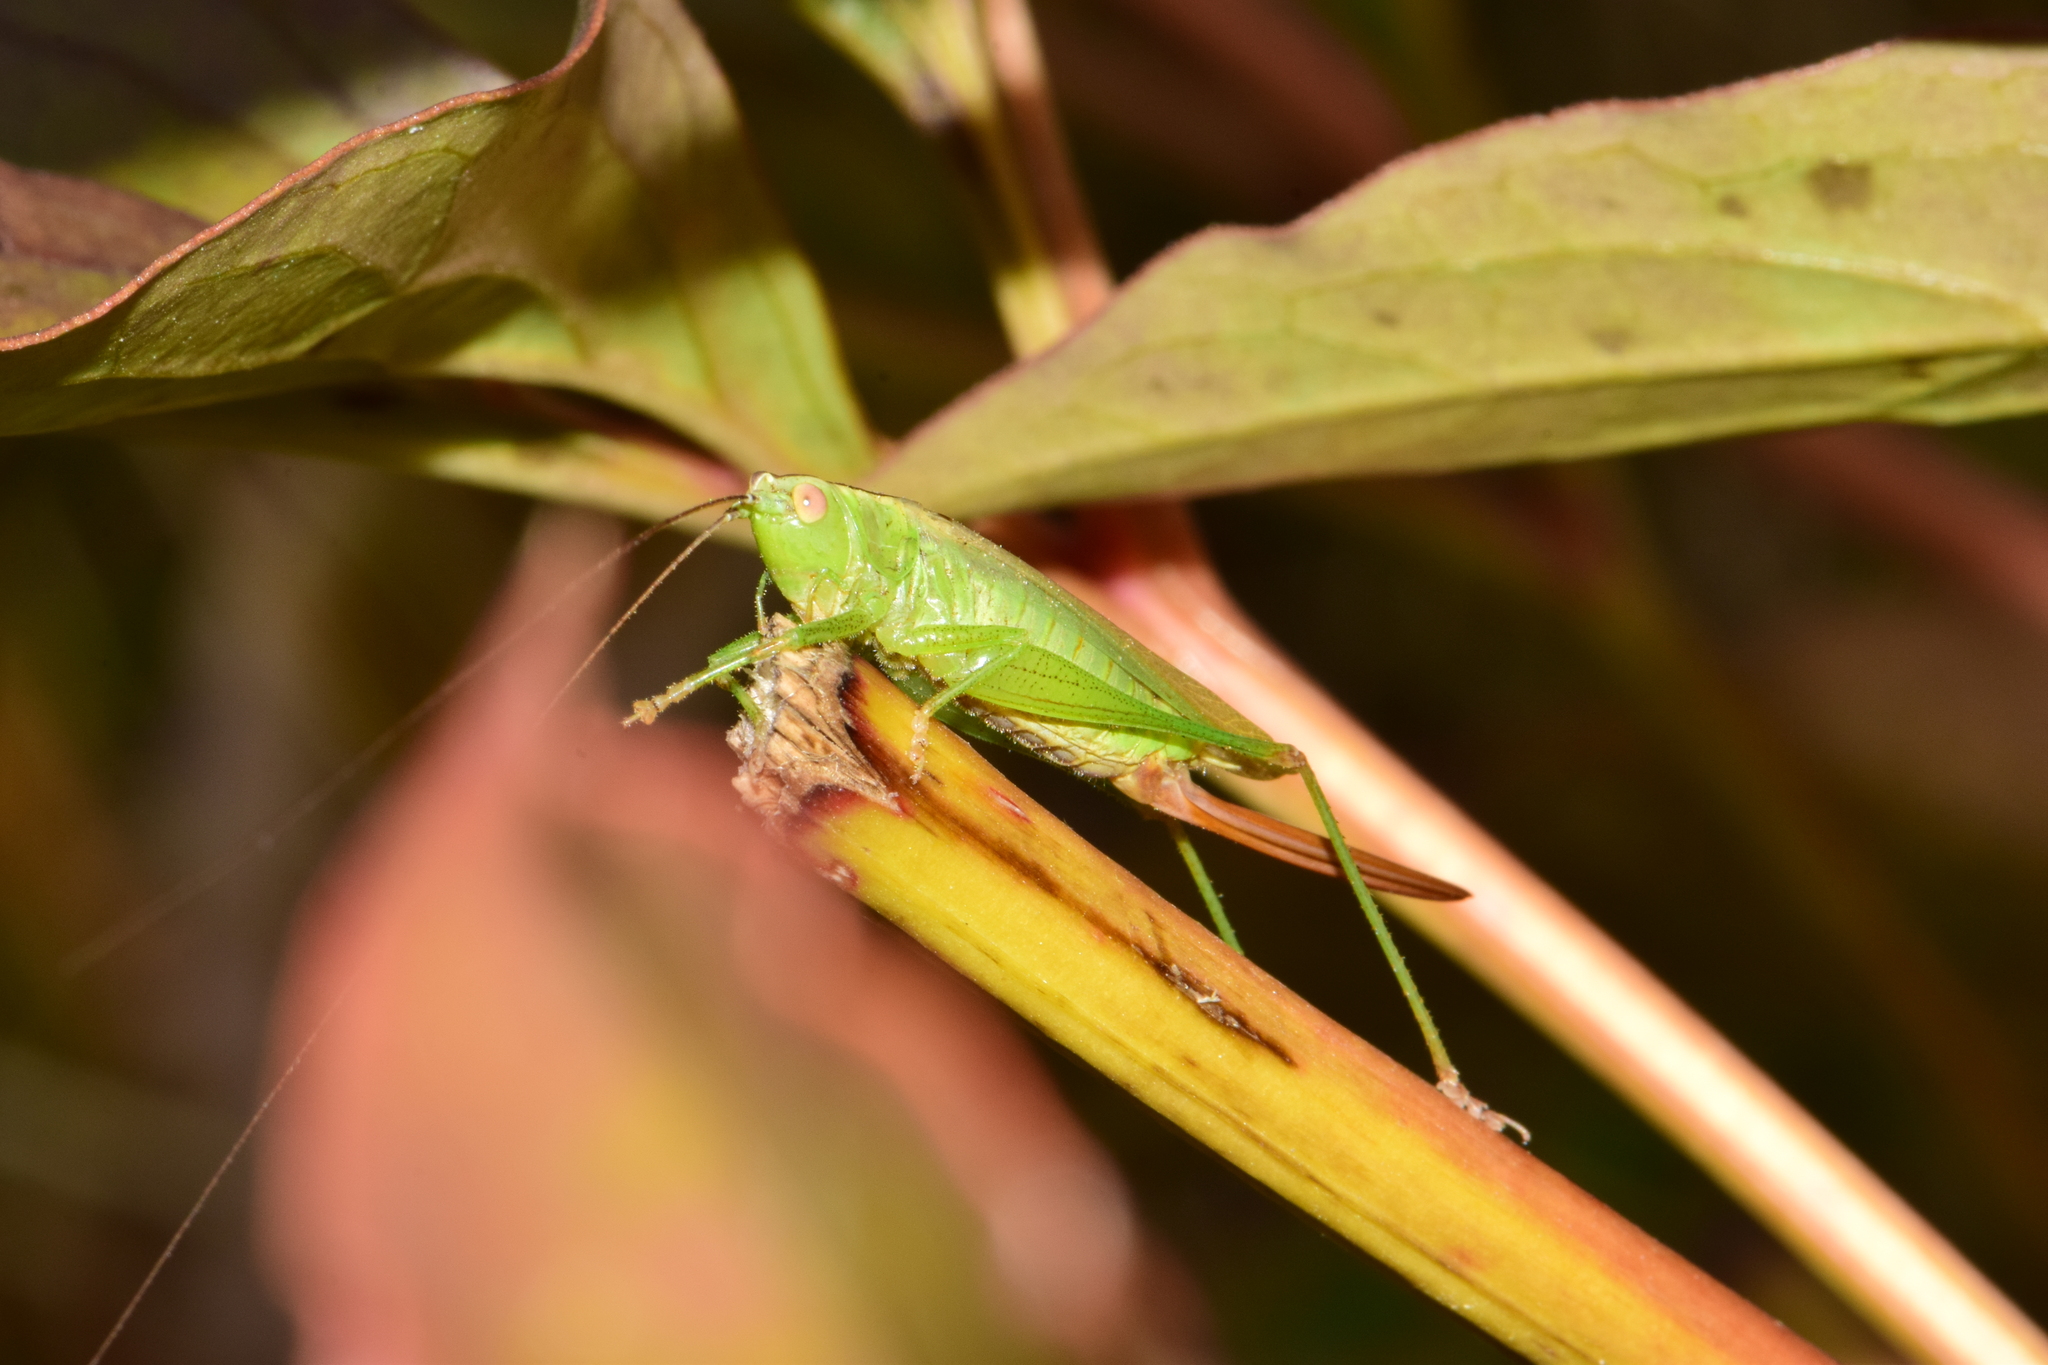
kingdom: Animalia
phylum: Arthropoda
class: Insecta
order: Orthoptera
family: Tettigoniidae
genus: Conocephalus
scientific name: Conocephalus fuscus
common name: Long-winged conehead
